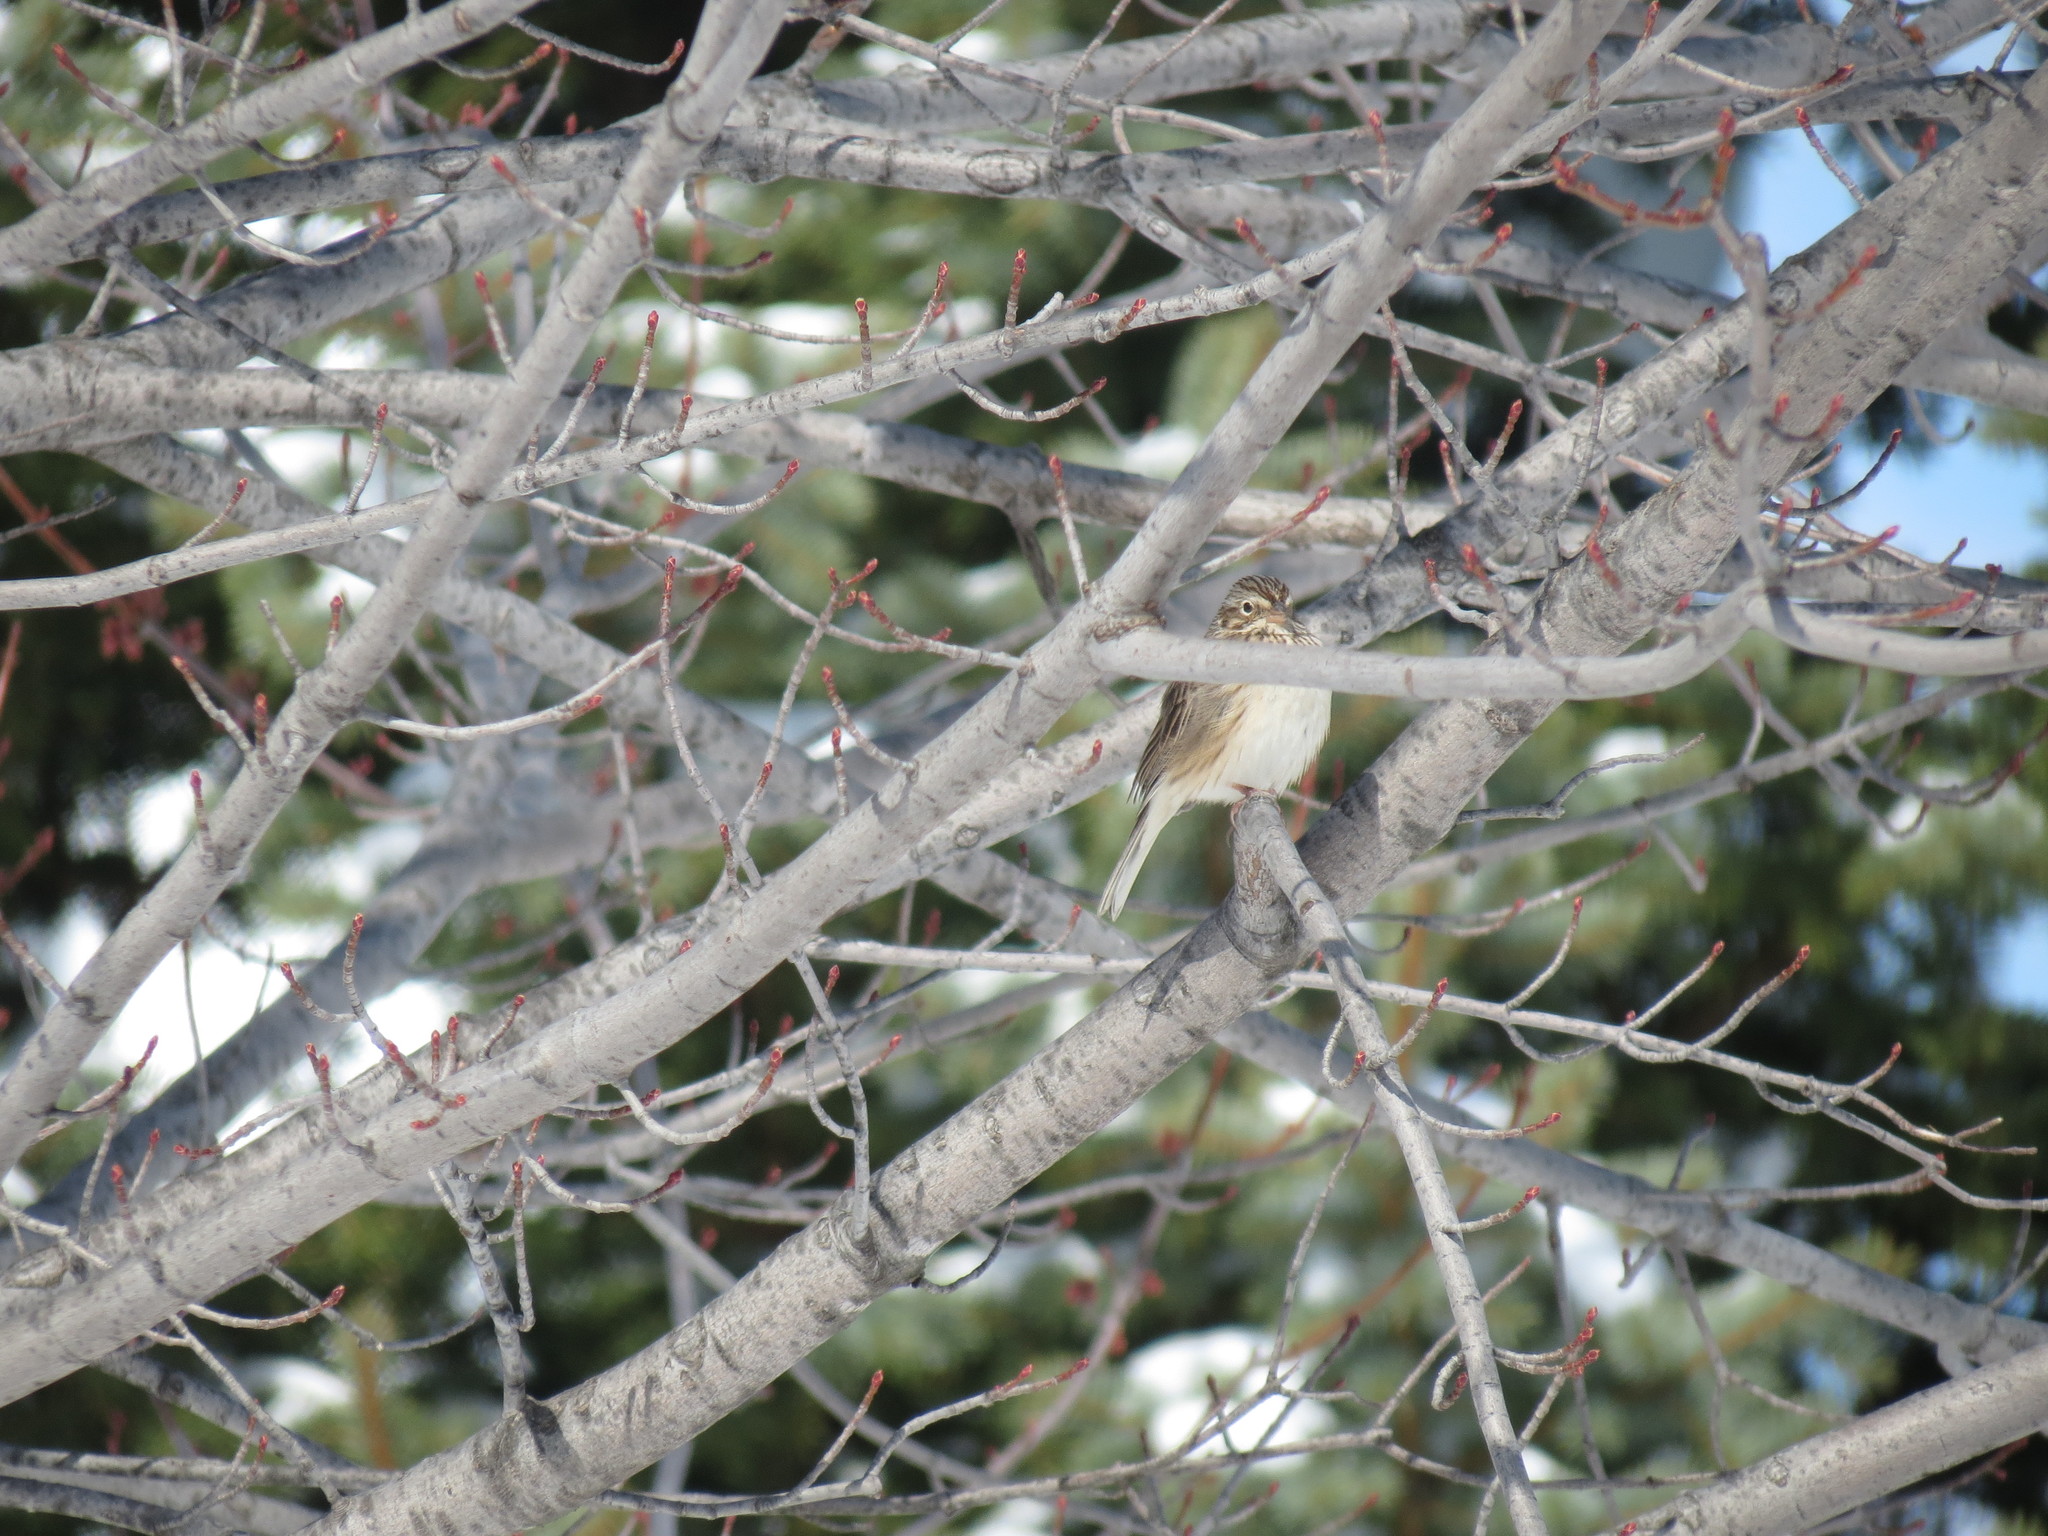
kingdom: Animalia
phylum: Chordata
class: Aves
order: Passeriformes
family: Passerellidae
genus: Pooecetes
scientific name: Pooecetes gramineus
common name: Vesper sparrow
